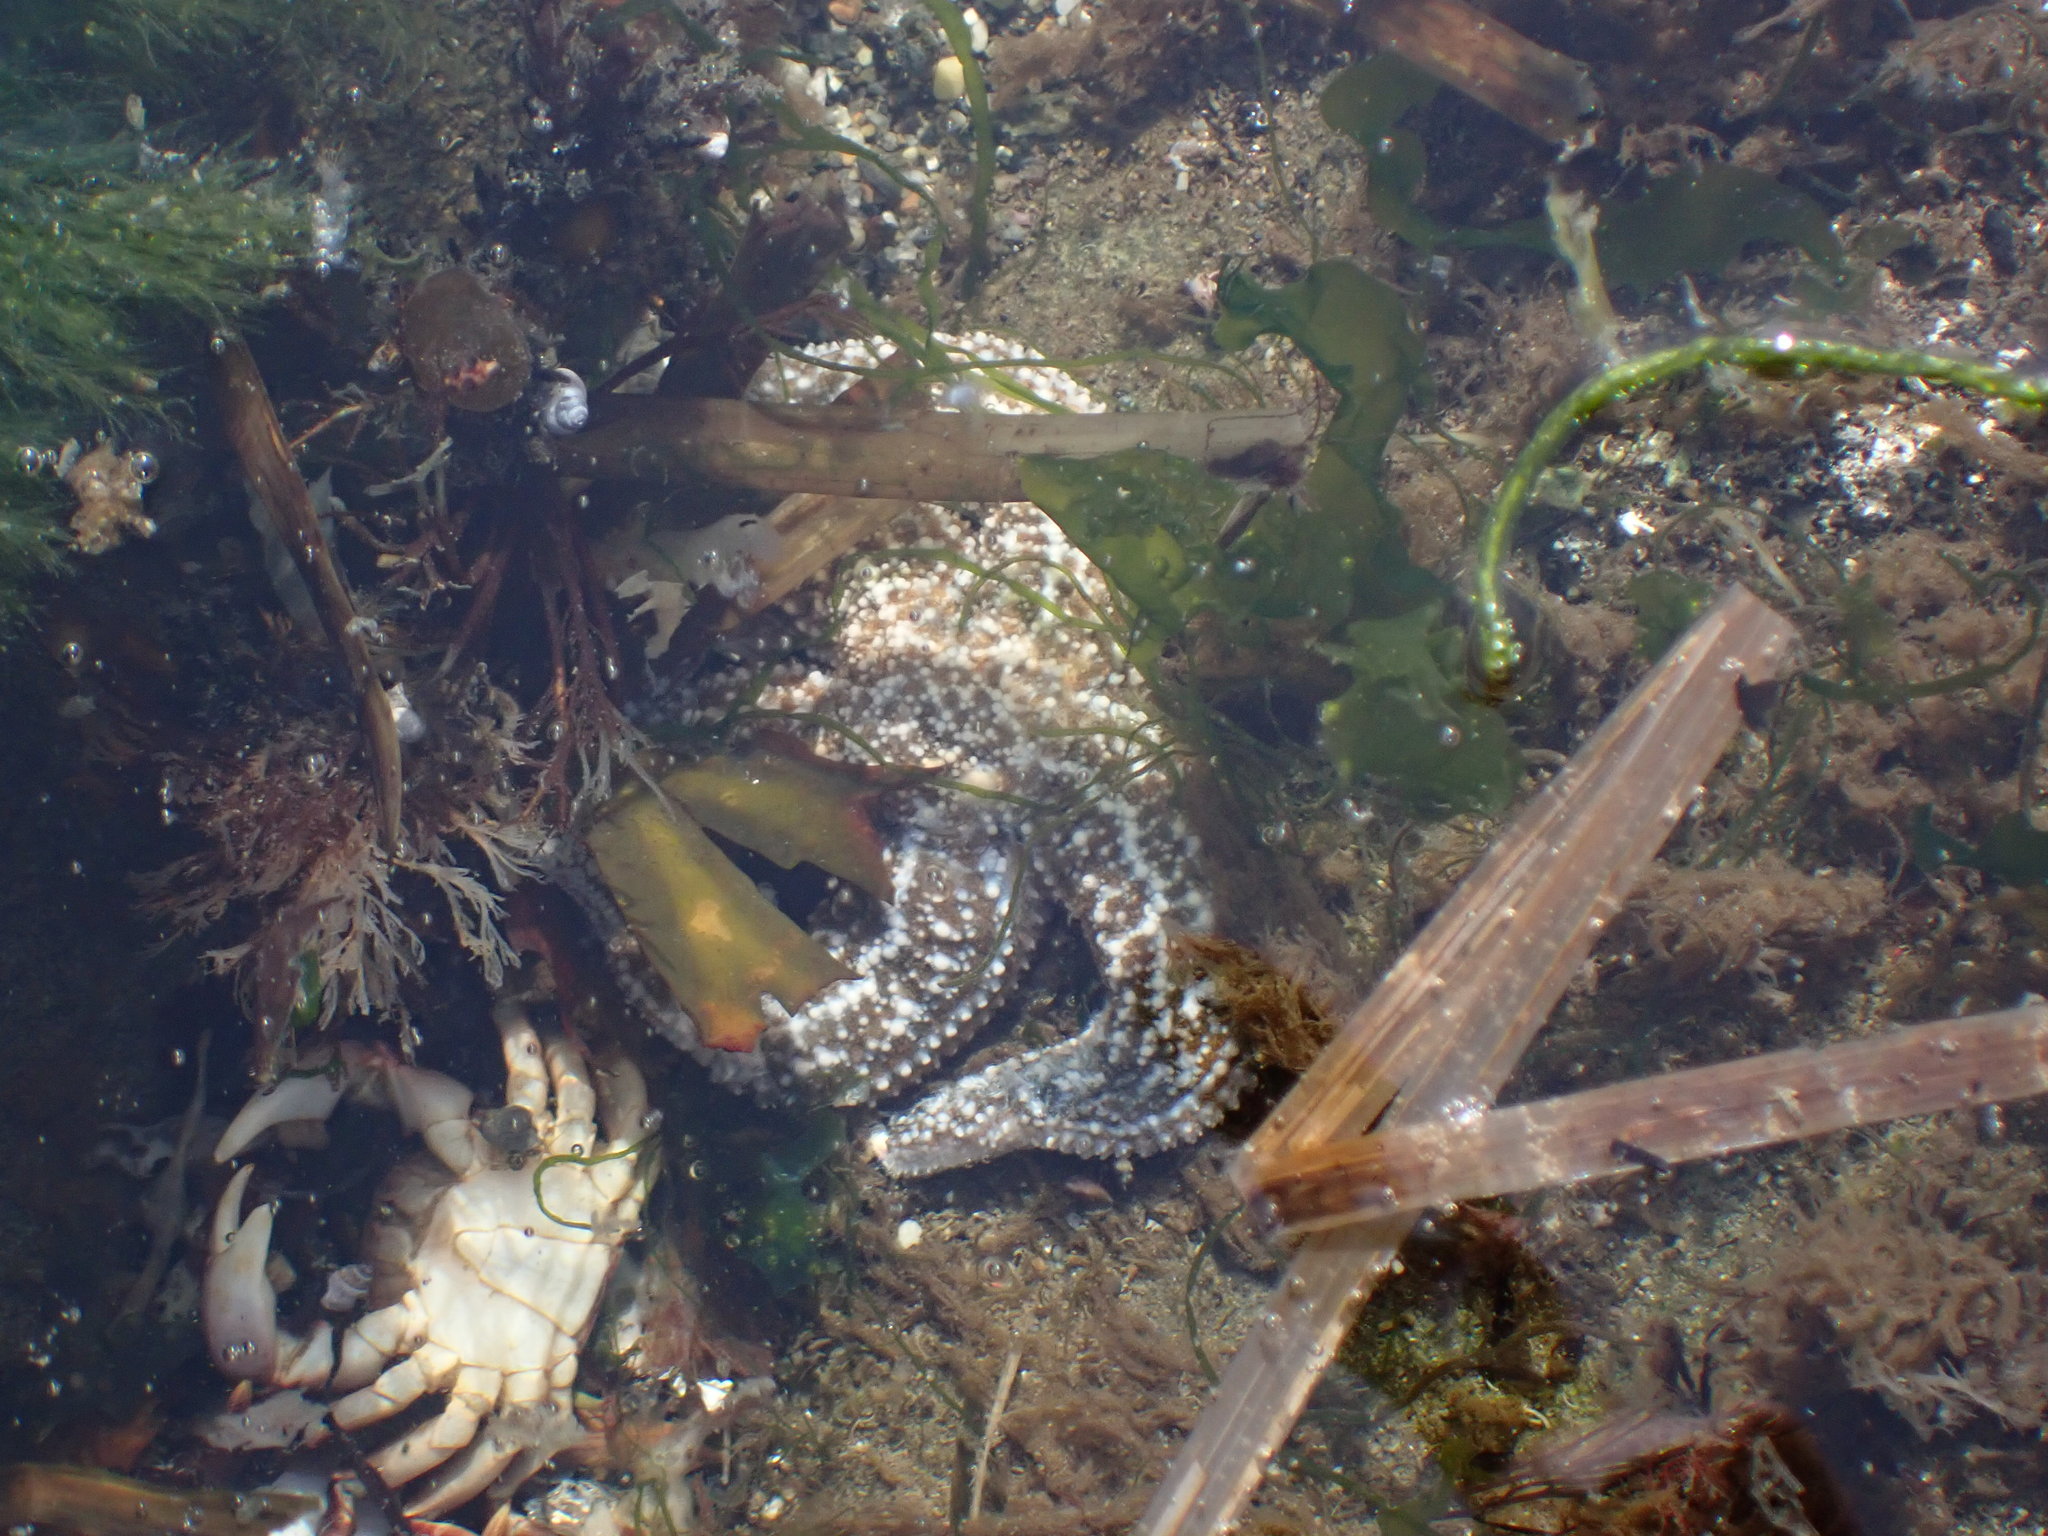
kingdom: Animalia
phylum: Echinodermata
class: Asteroidea
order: Forcipulatida
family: Asteriidae
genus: Evasterias
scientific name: Evasterias troschelii
